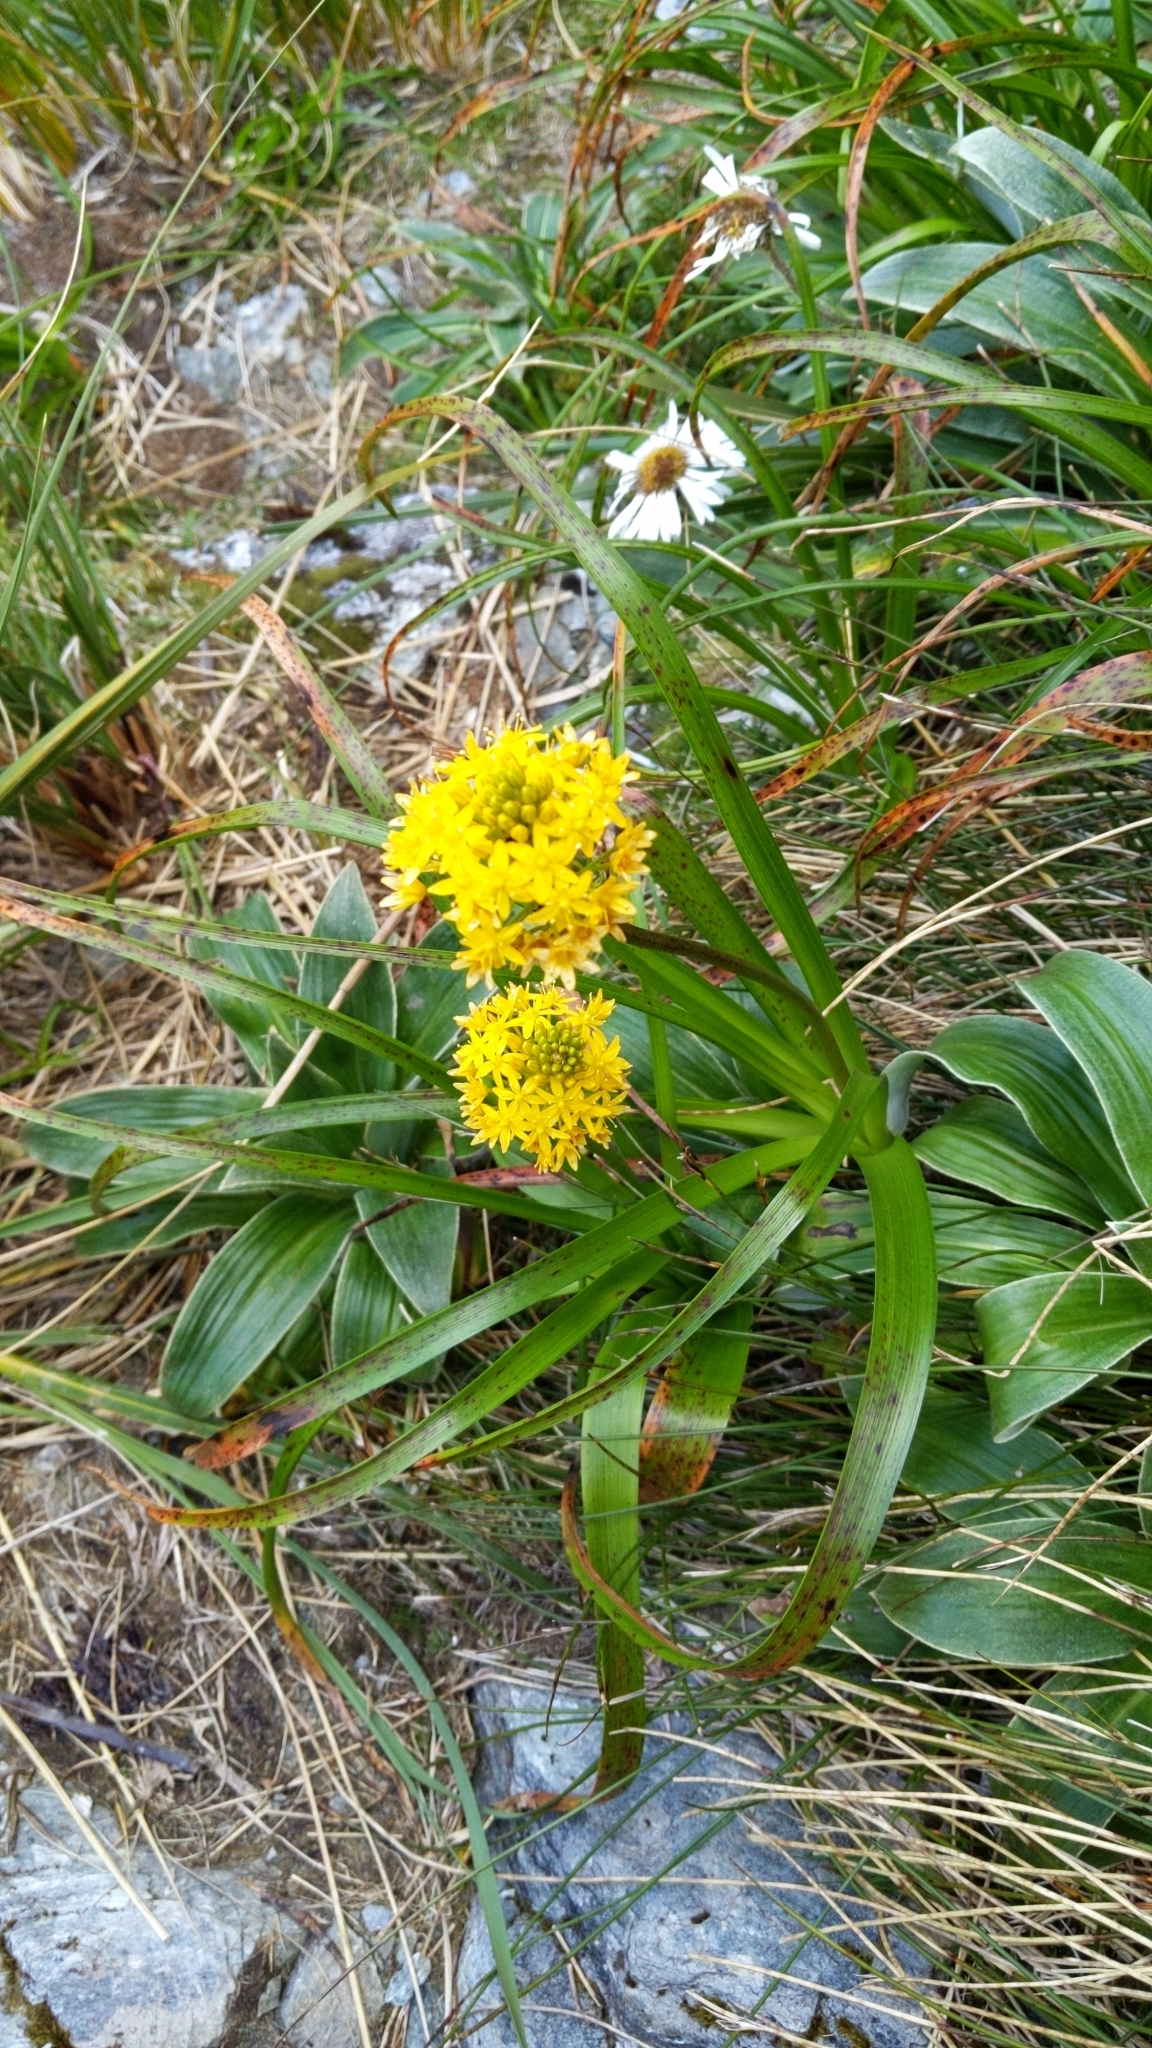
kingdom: Plantae
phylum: Tracheophyta
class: Liliopsida
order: Asparagales
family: Asphodelaceae
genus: Bulbinella
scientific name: Bulbinella gibbsii
